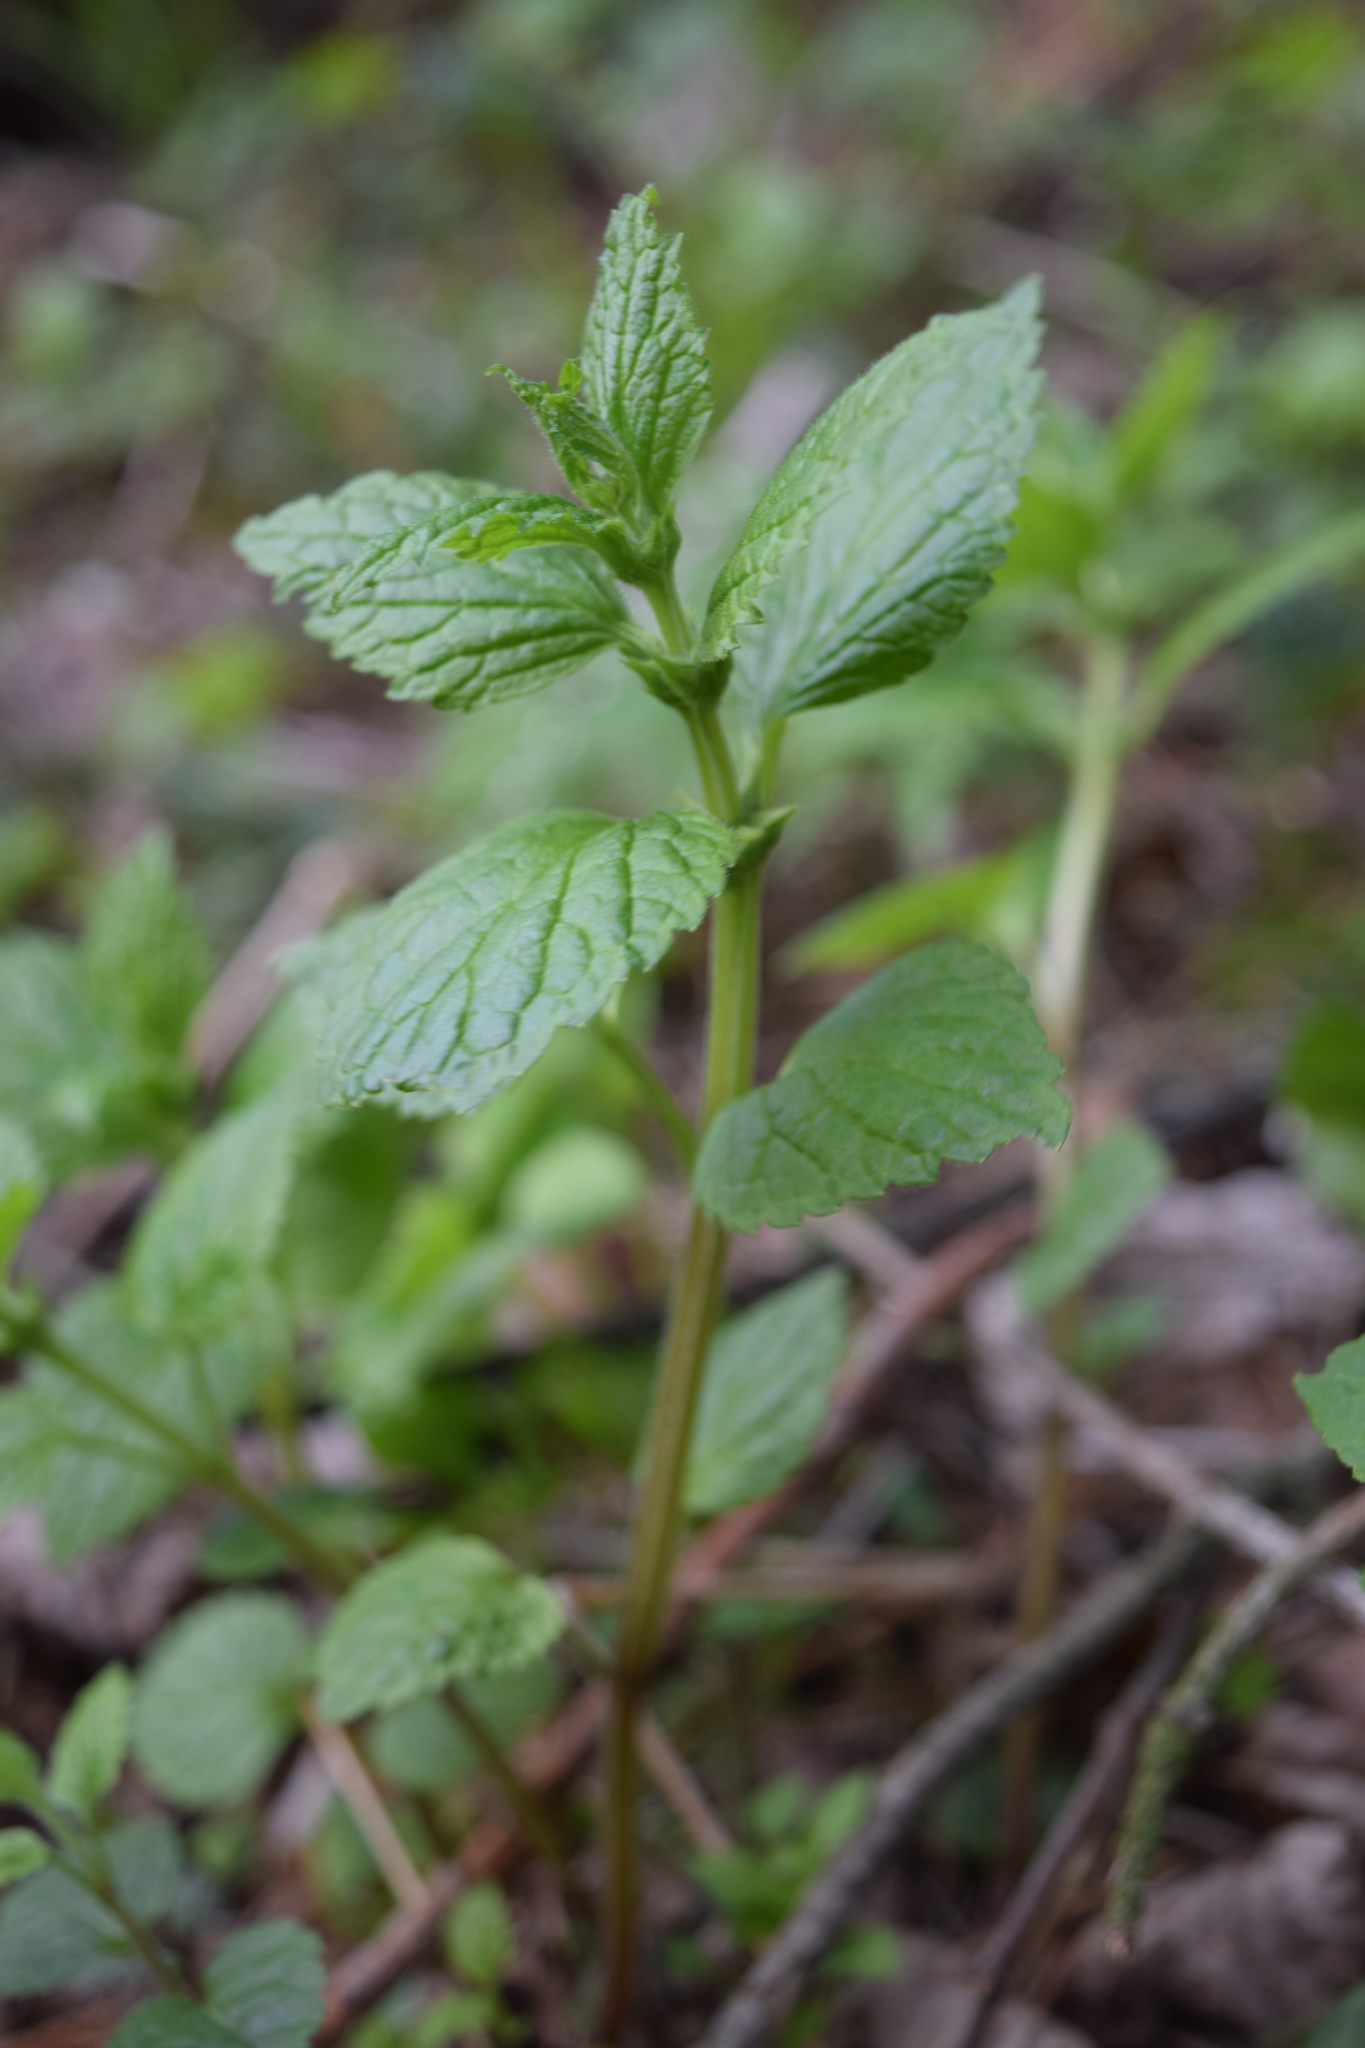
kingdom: Plantae
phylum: Tracheophyta
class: Magnoliopsida
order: Lamiales
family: Lamiaceae
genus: Lamium
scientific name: Lamium galeobdolon
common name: Yellow archangel
